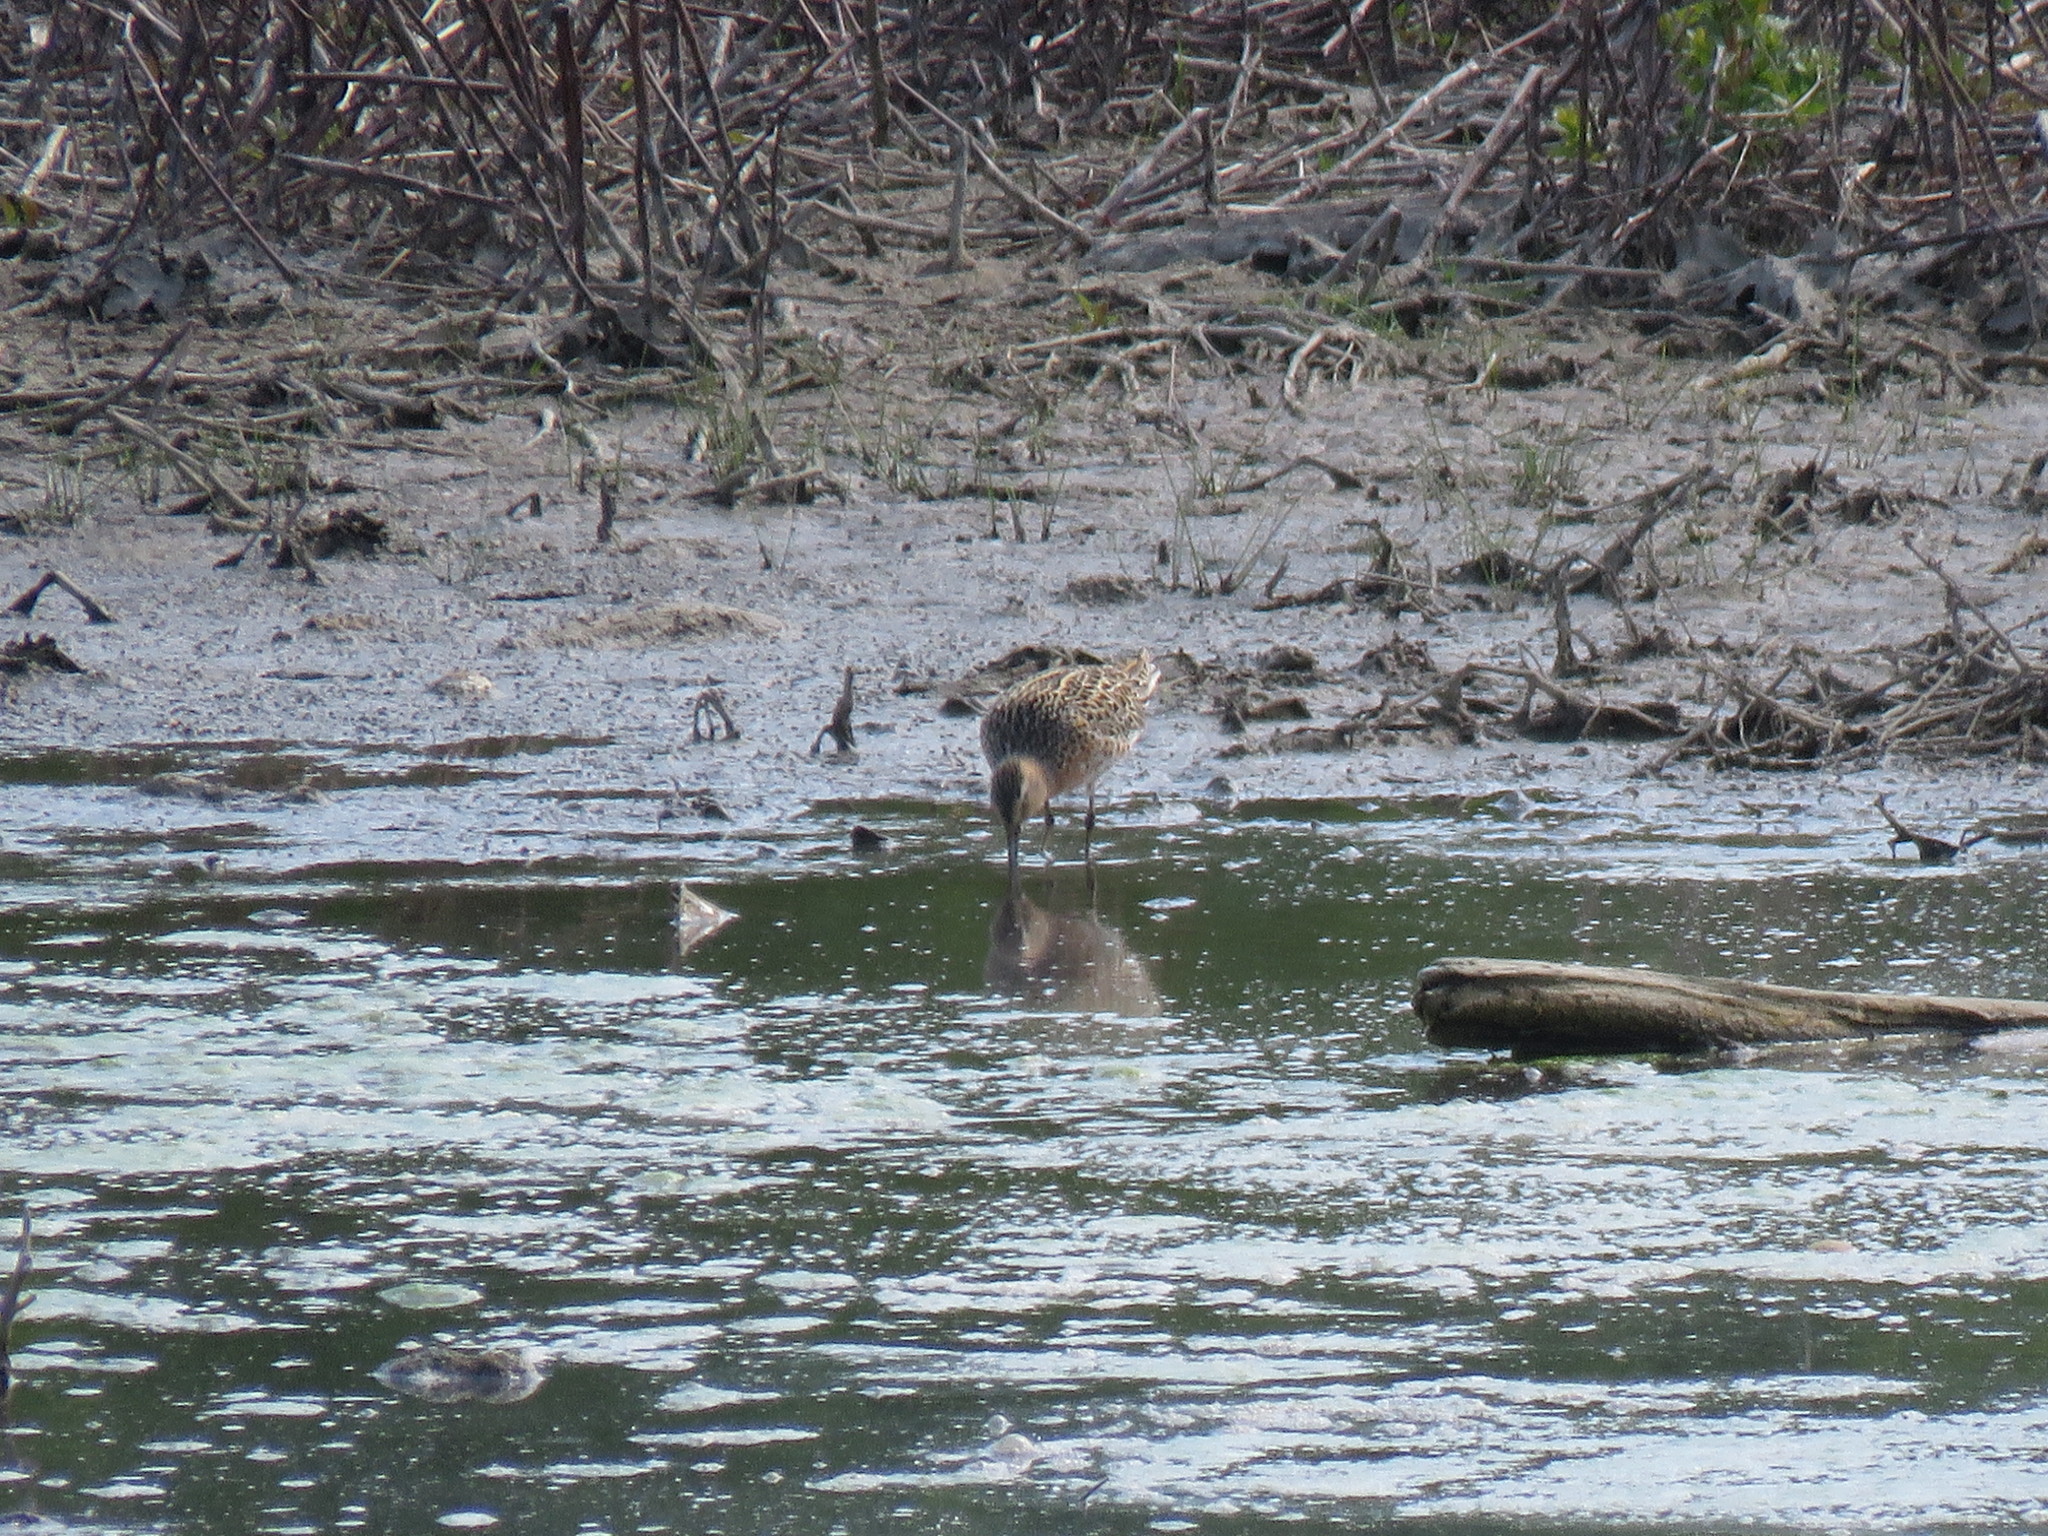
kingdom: Animalia
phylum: Chordata
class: Aves
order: Charadriiformes
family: Scolopacidae
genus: Limnodromus
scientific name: Limnodromus griseus
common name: Short-billed dowitcher
